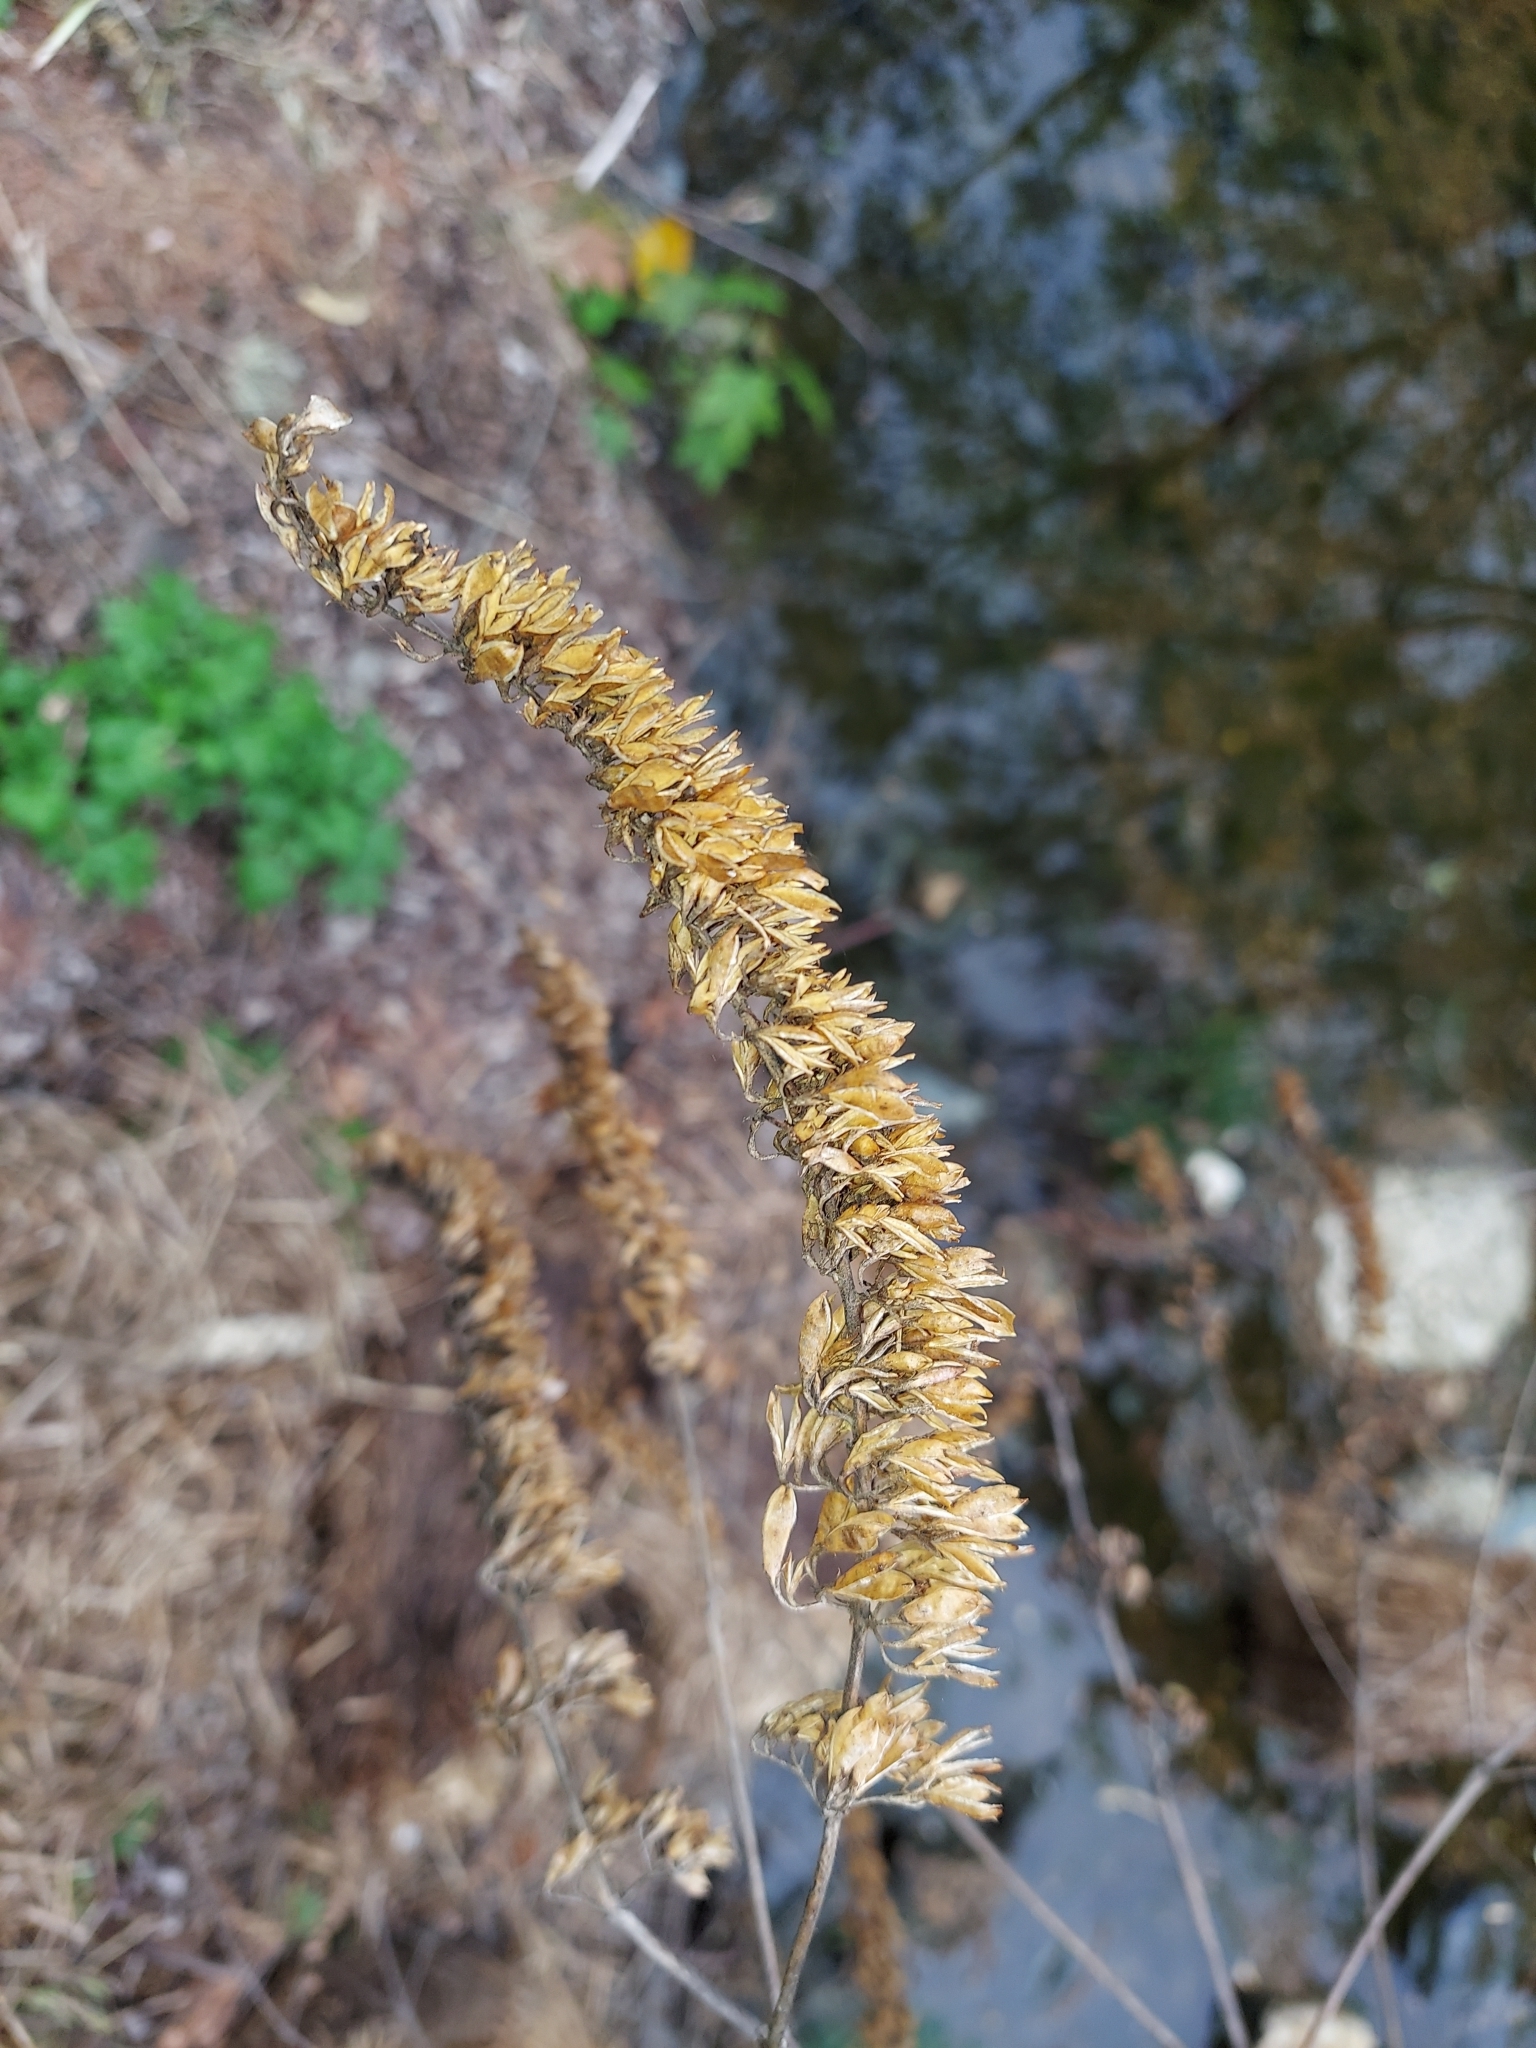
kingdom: Plantae
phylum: Tracheophyta
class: Magnoliopsida
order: Lamiales
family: Scrophulariaceae
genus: Buddleja
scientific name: Buddleja davidii
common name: Butterfly-bush
